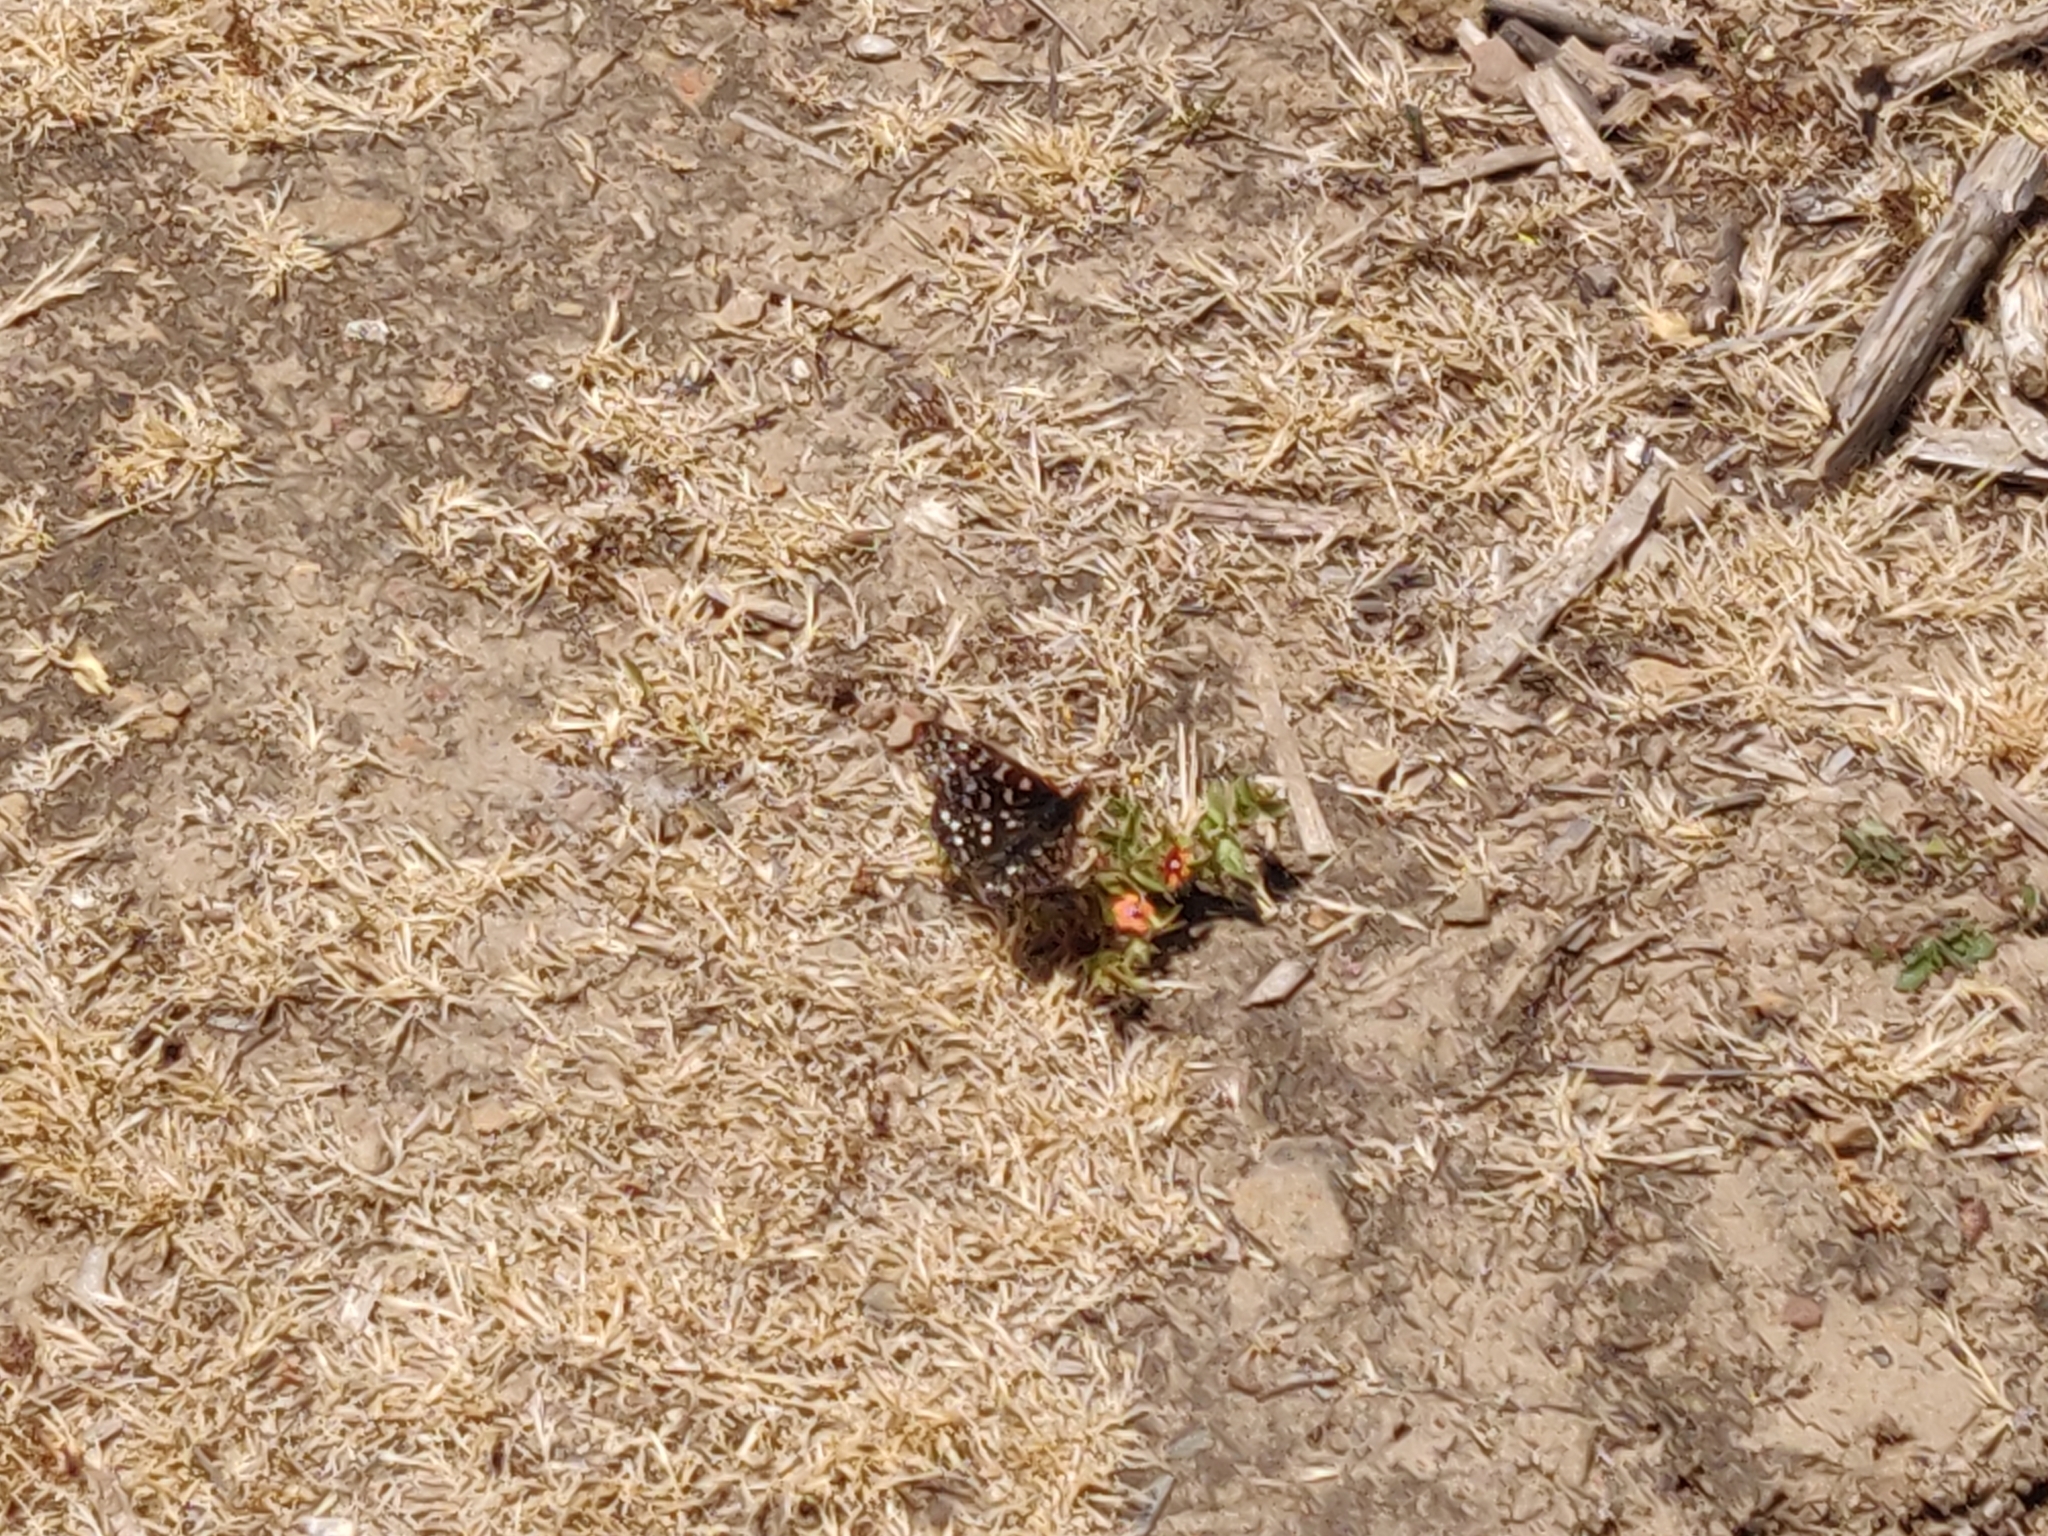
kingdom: Animalia
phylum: Arthropoda
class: Insecta
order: Lepidoptera
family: Nymphalidae
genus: Occidryas
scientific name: Occidryas chalcedona
